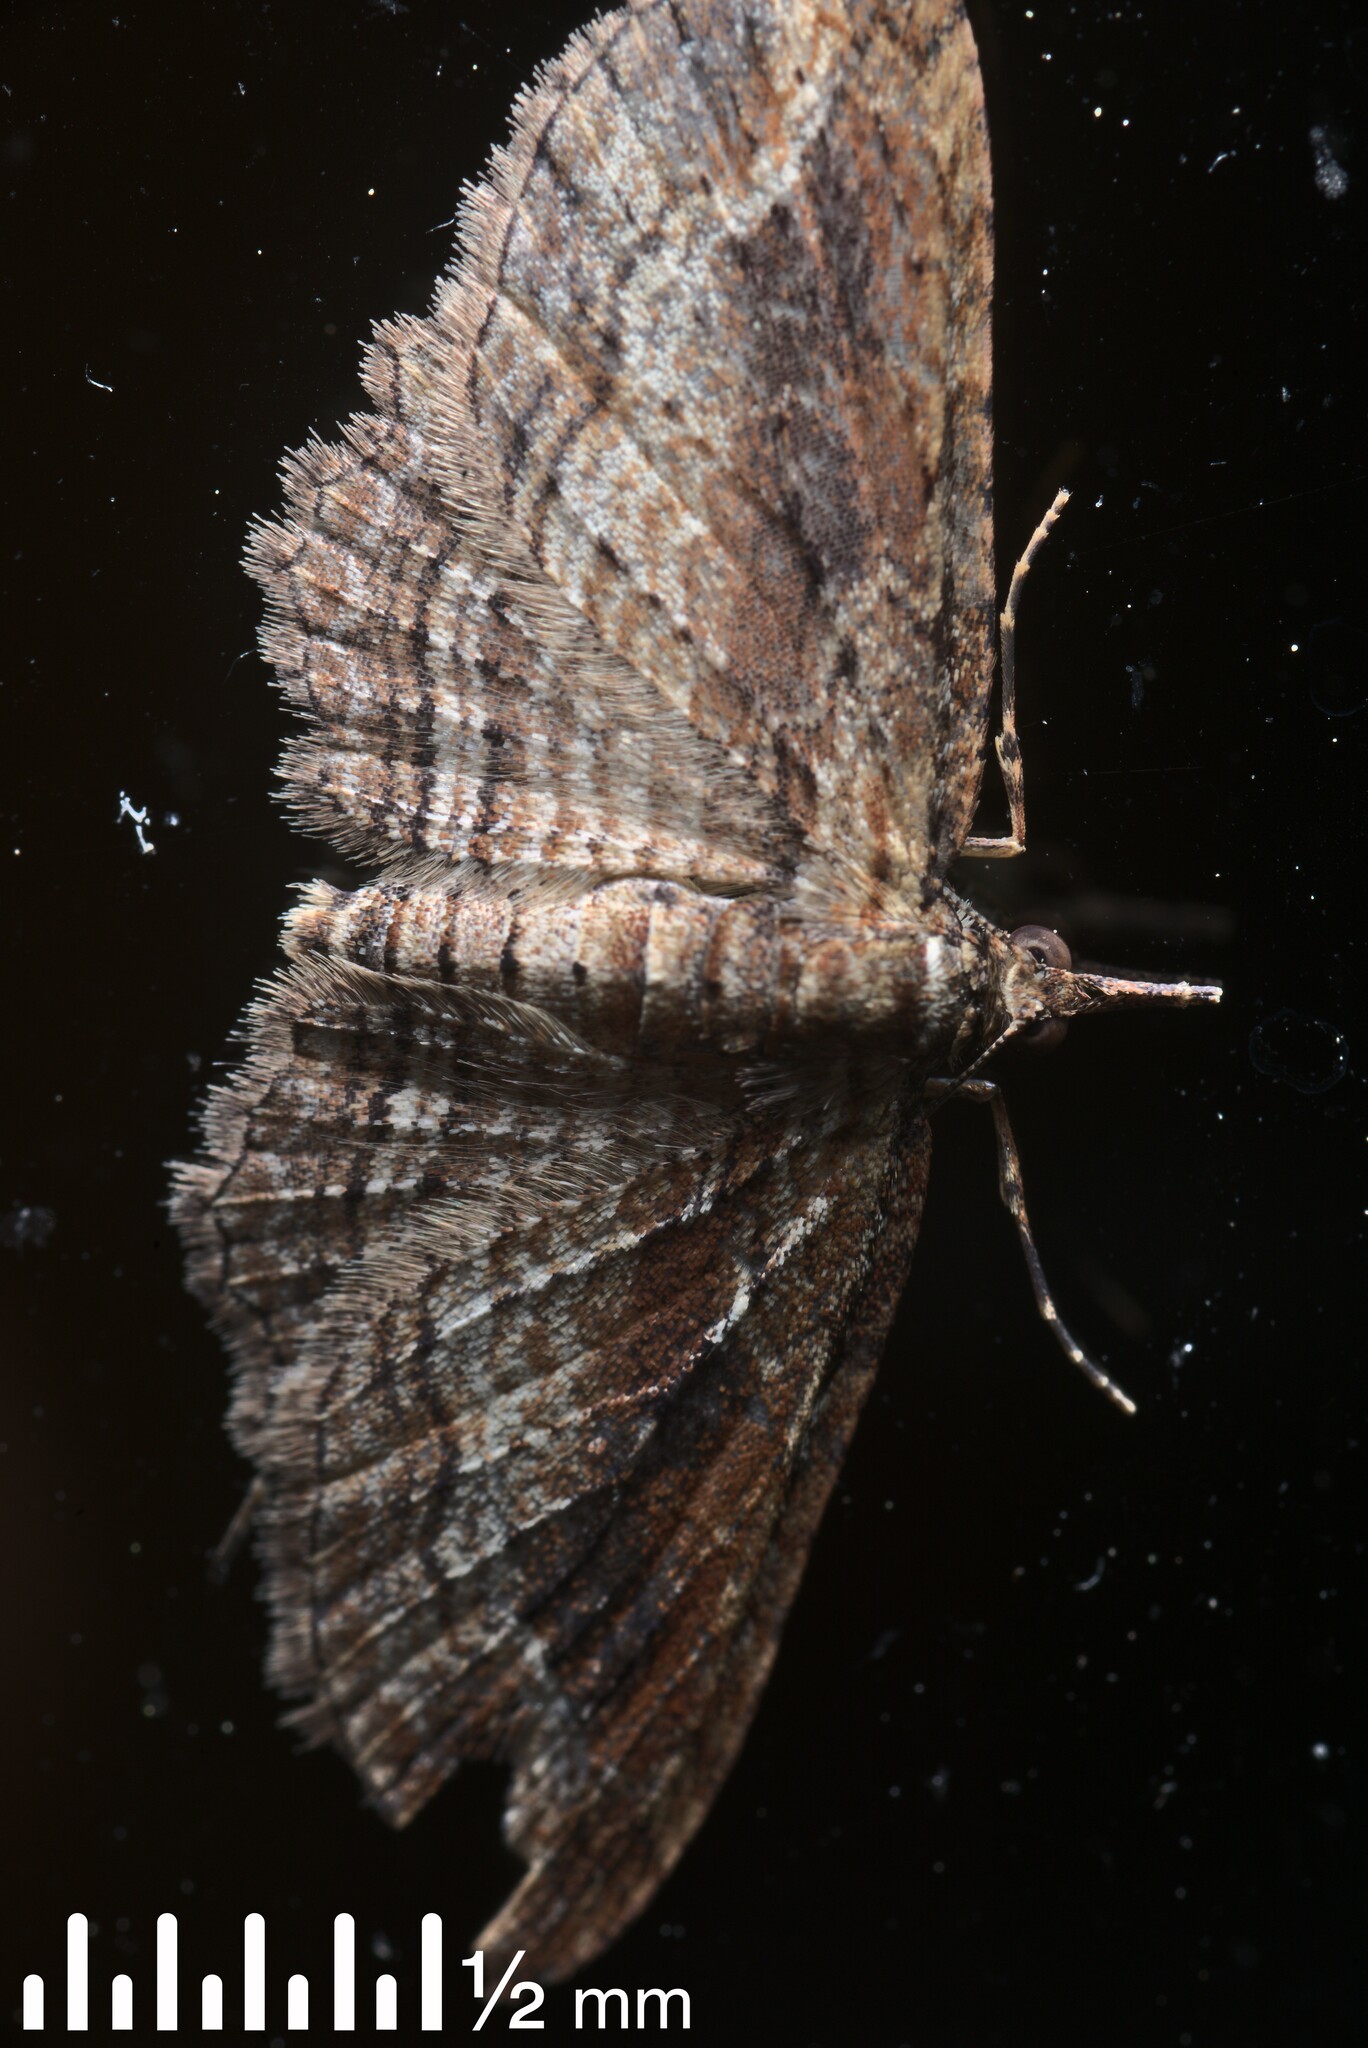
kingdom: Animalia
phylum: Arthropoda
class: Insecta
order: Lepidoptera
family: Geometridae
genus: Chloroclystis
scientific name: Chloroclystis filata
